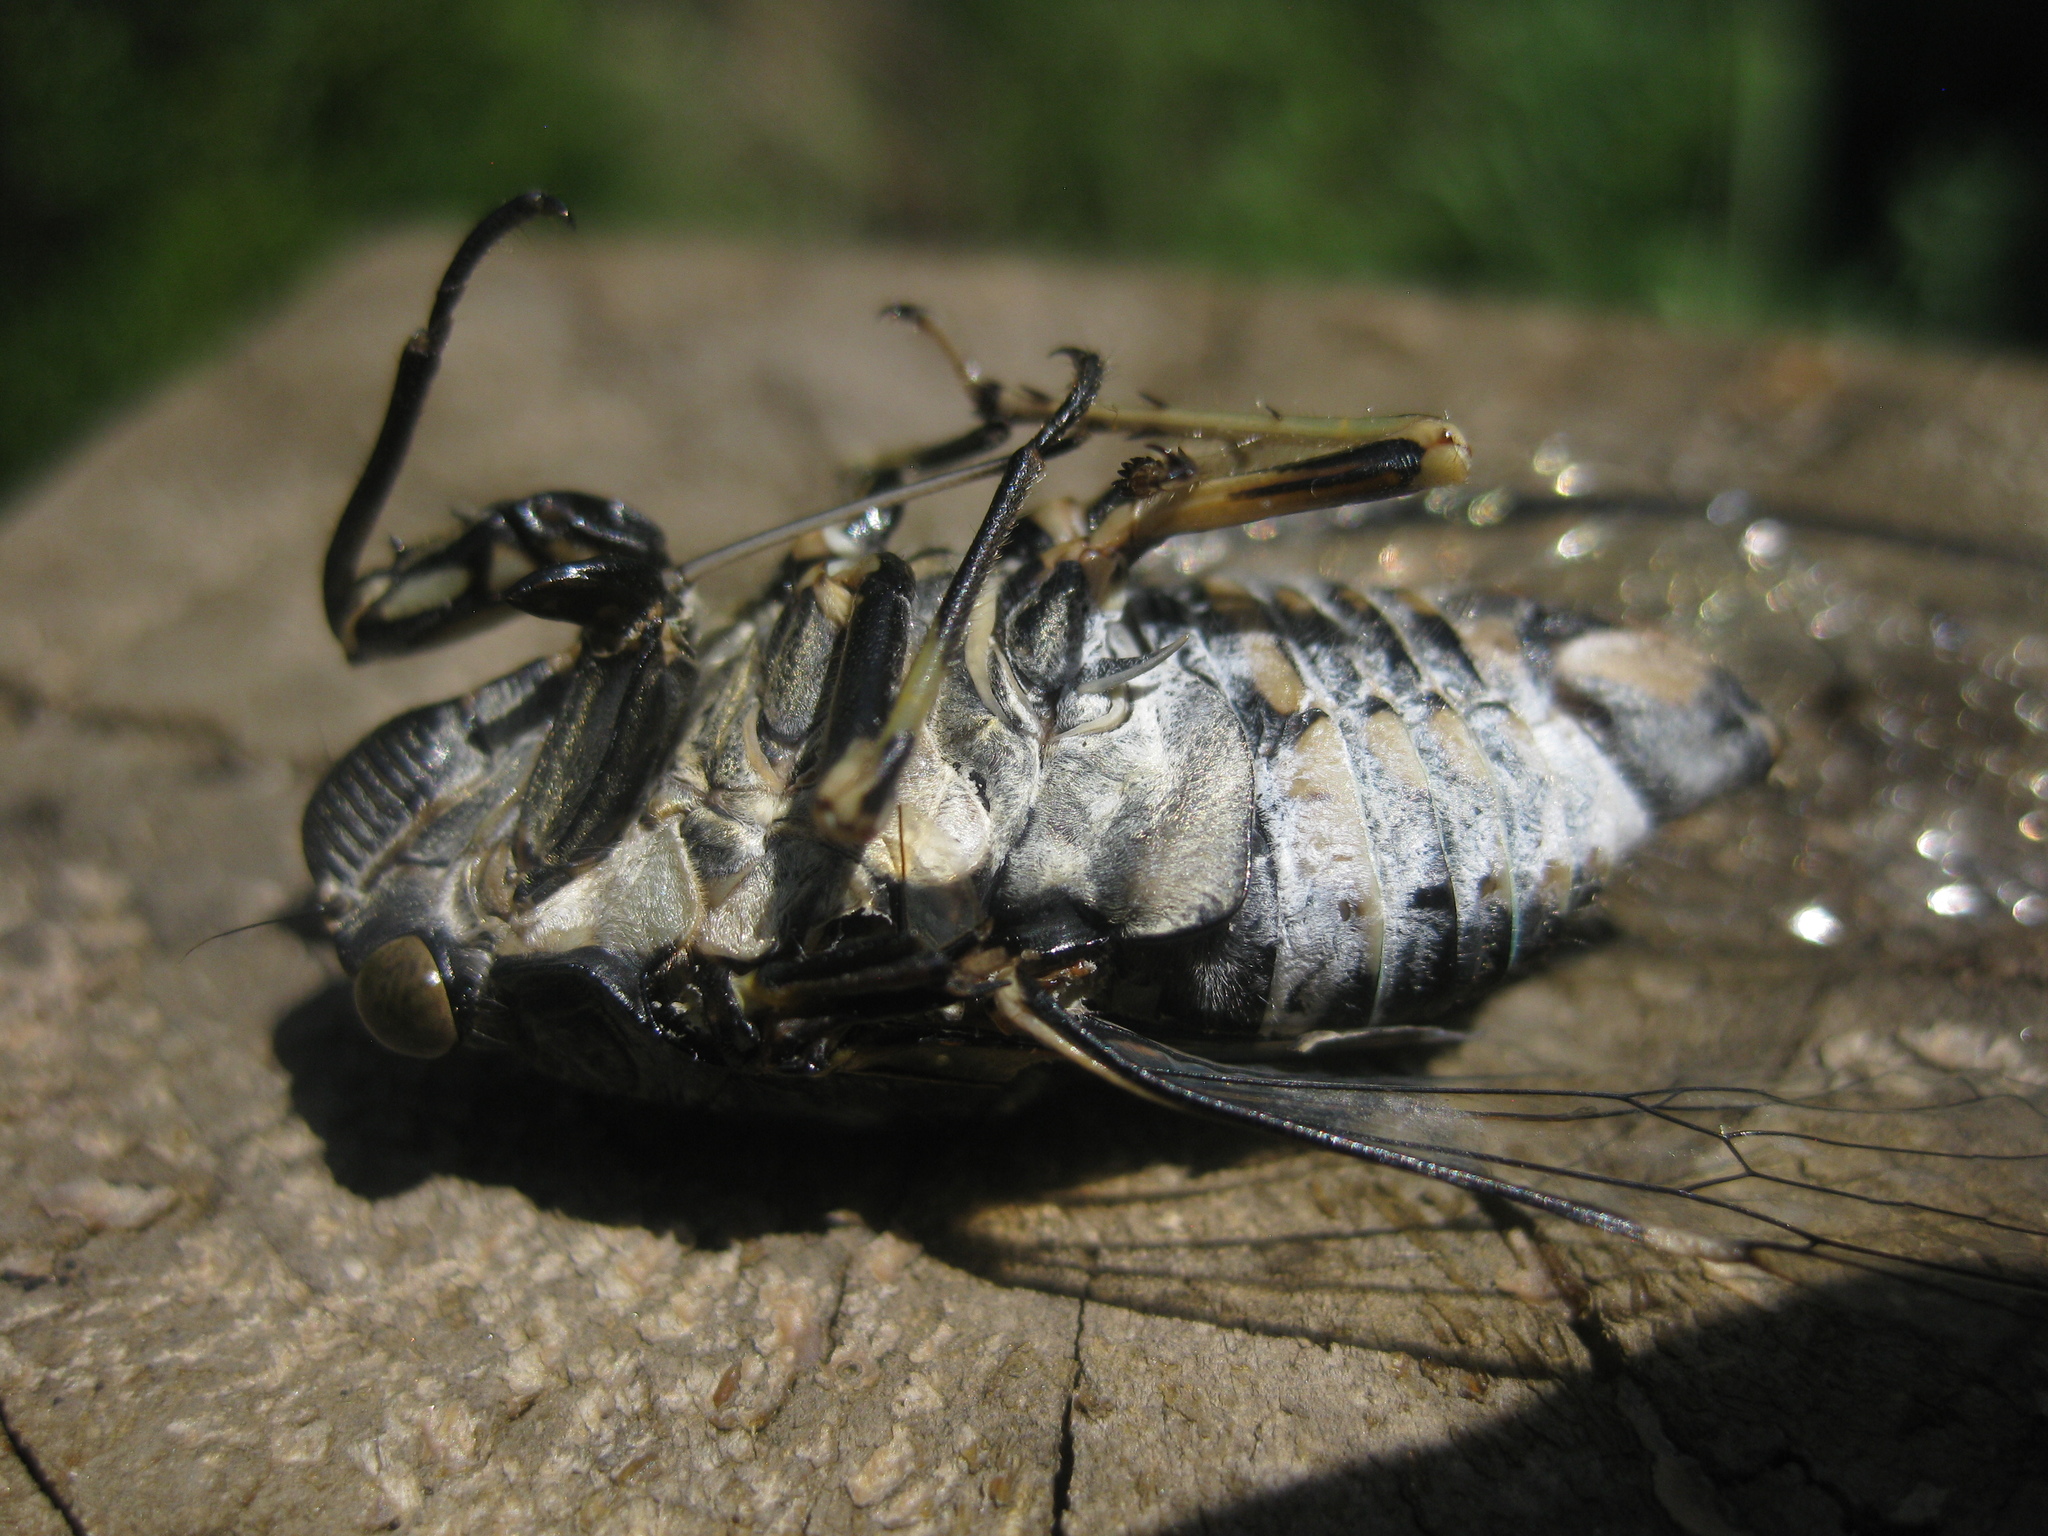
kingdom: Animalia
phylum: Arthropoda
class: Insecta
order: Hemiptera
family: Cicadidae
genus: Hyalessa
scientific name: Hyalessa ronshana
